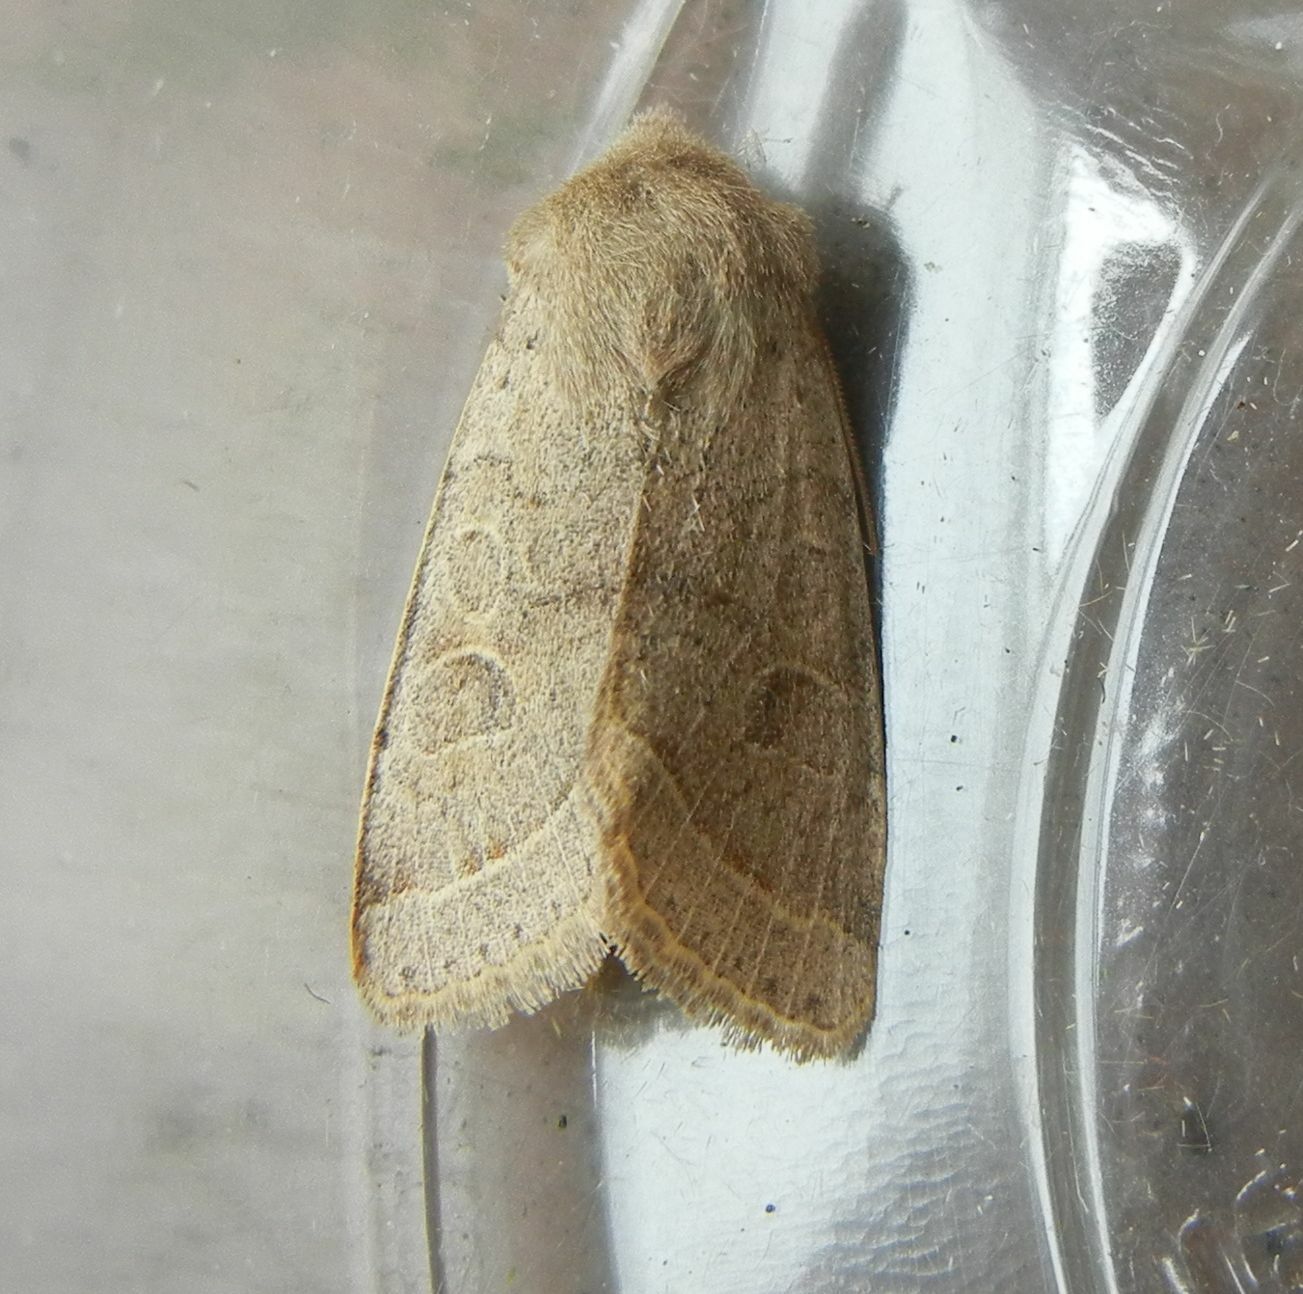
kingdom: Animalia
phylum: Arthropoda
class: Insecta
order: Lepidoptera
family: Noctuidae
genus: Orthosia
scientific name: Orthosia cerasi
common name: Common quaker
